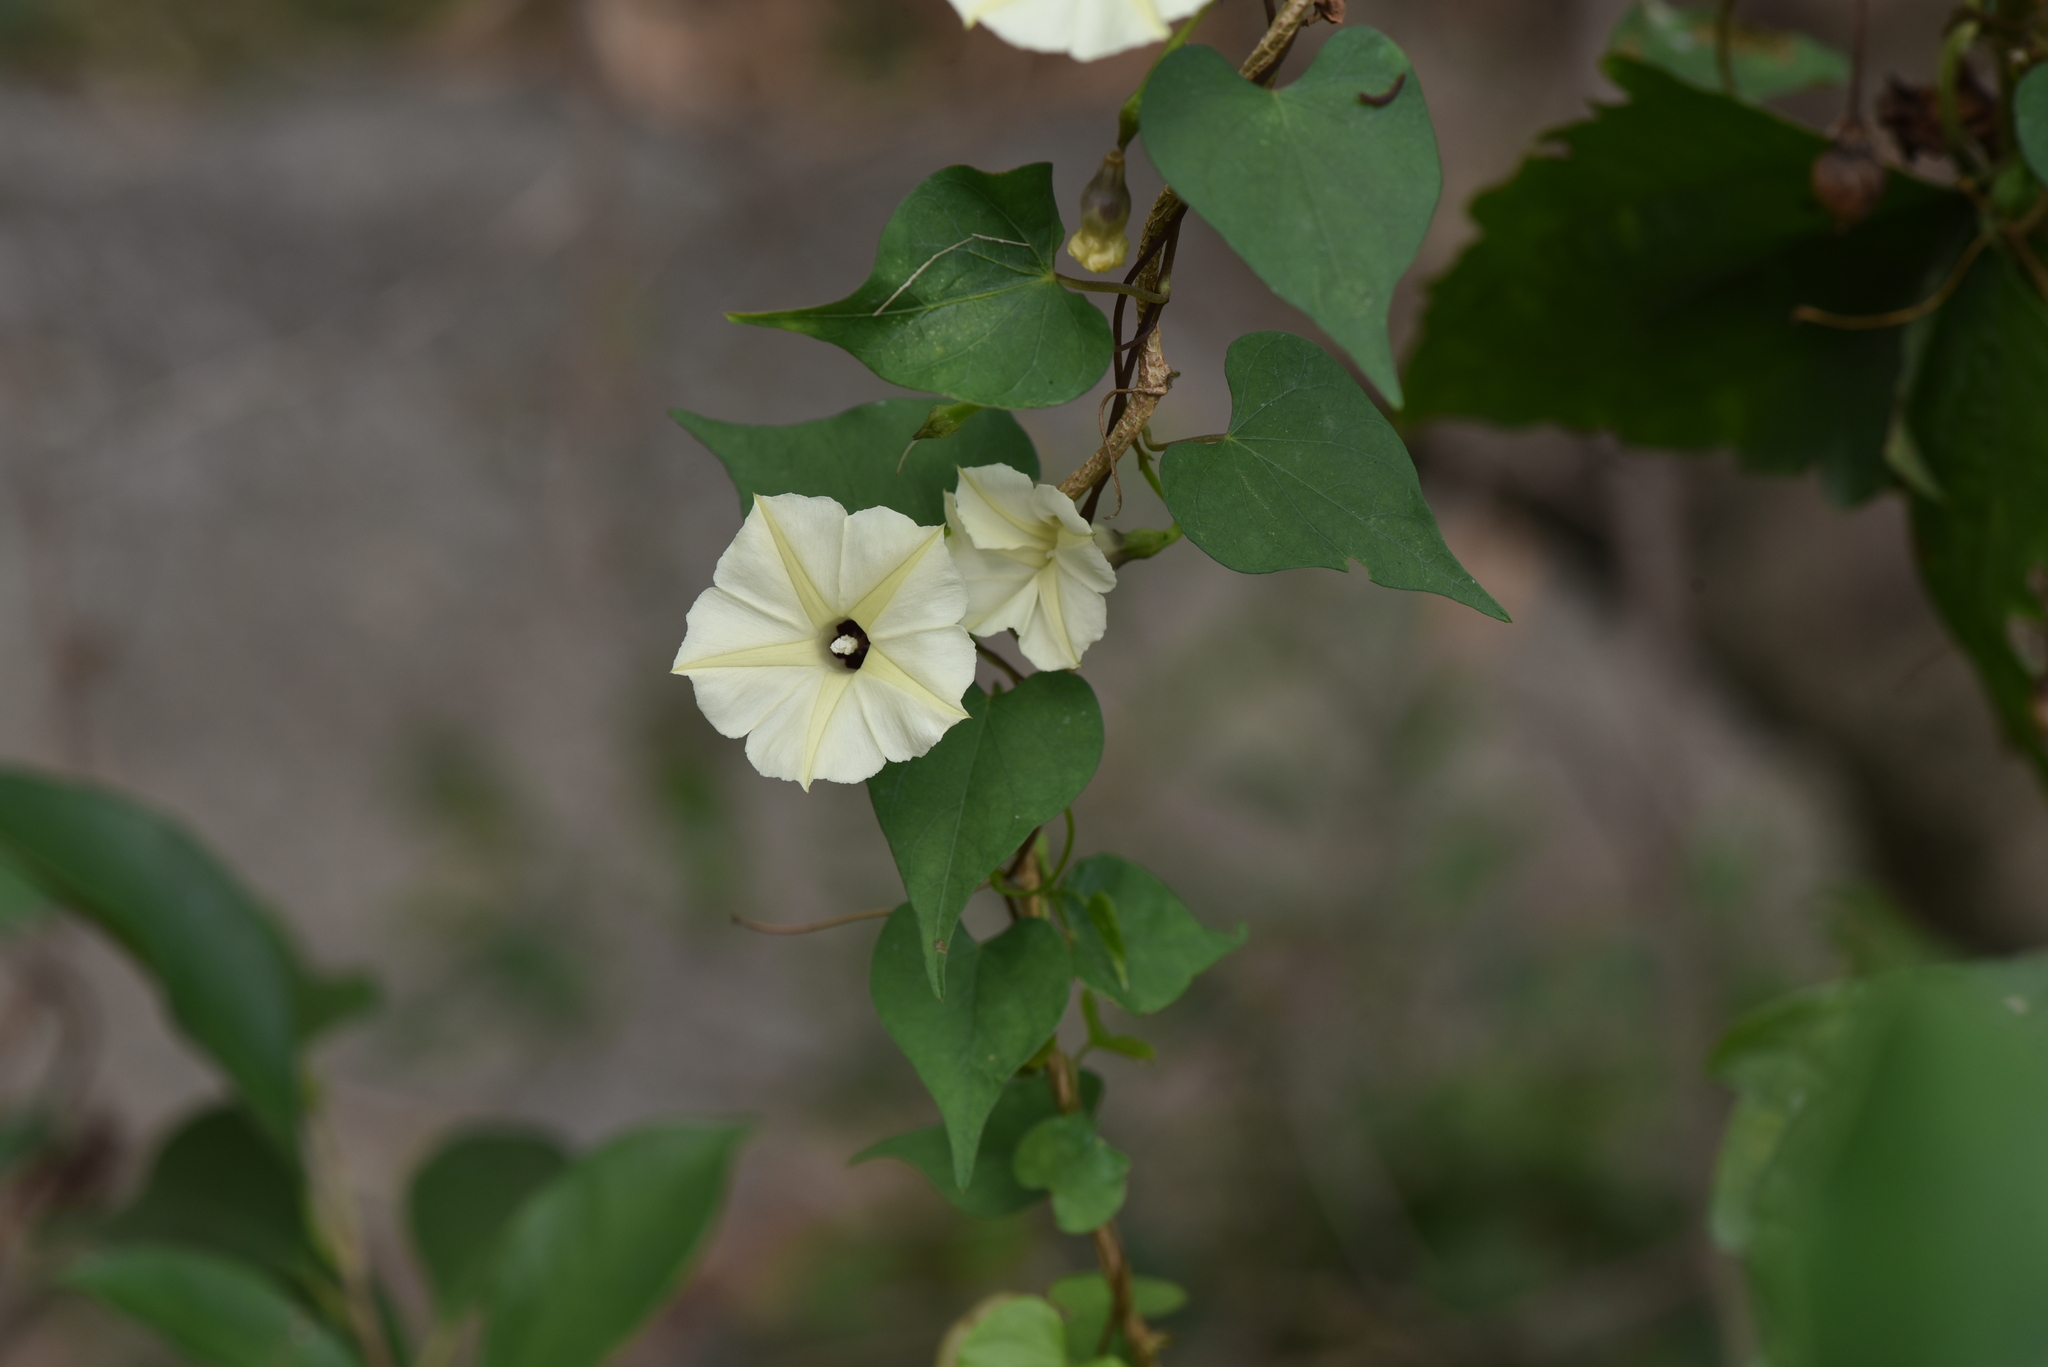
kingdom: Plantae
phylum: Tracheophyta
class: Magnoliopsida
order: Solanales
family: Convolvulaceae
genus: Ipomoea
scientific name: Ipomoea obscura
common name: Obscure morning-glory
